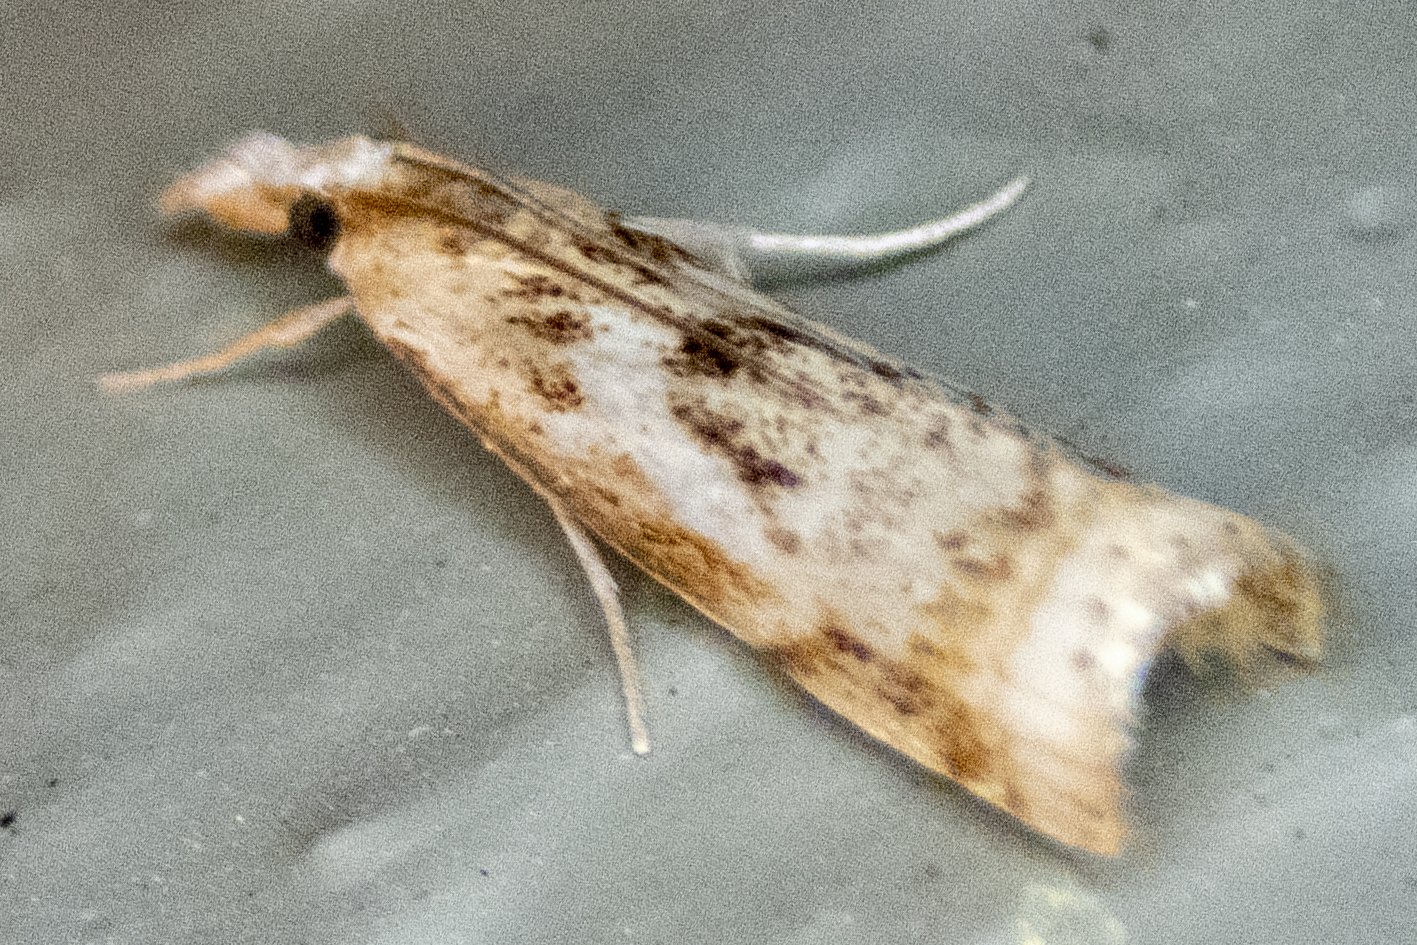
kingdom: Animalia
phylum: Arthropoda
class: Insecta
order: Lepidoptera
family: Crambidae
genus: Microcrambus
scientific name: Microcrambus elegans
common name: Elegant grass-veneer
